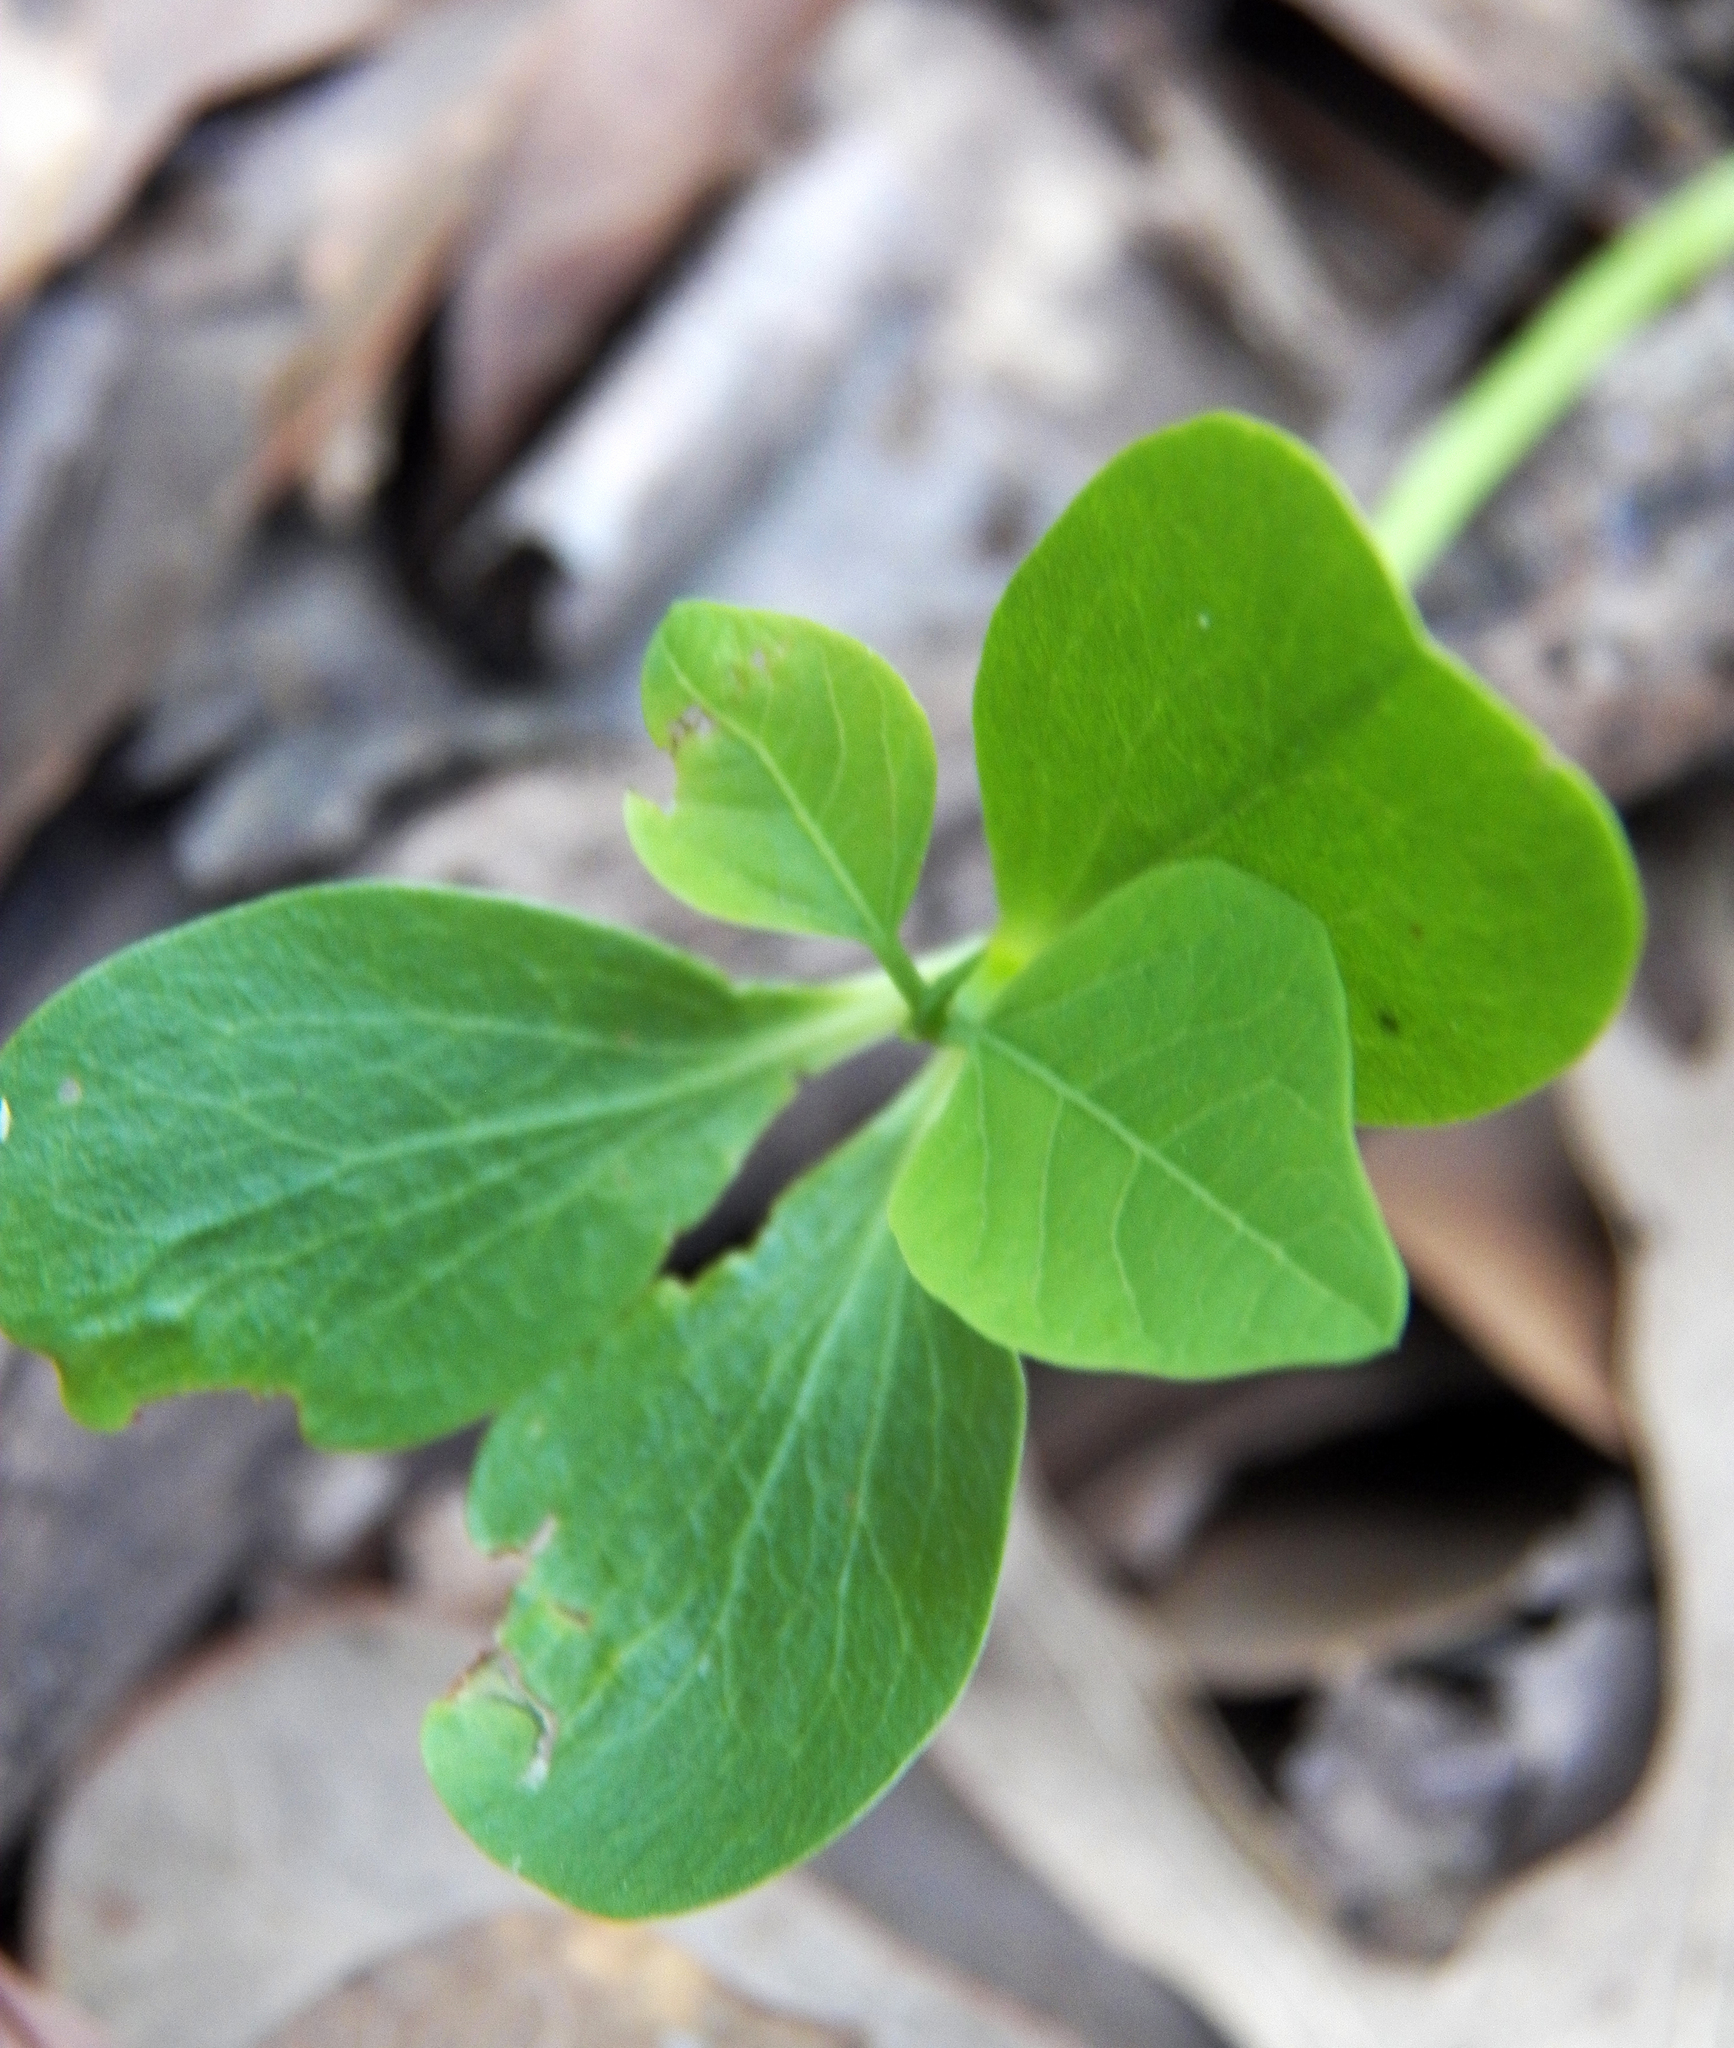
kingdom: Plantae
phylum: Tracheophyta
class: Magnoliopsida
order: Malpighiales
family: Euphorbiaceae
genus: Triadica
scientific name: Triadica sebifera
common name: Chinese tallow
